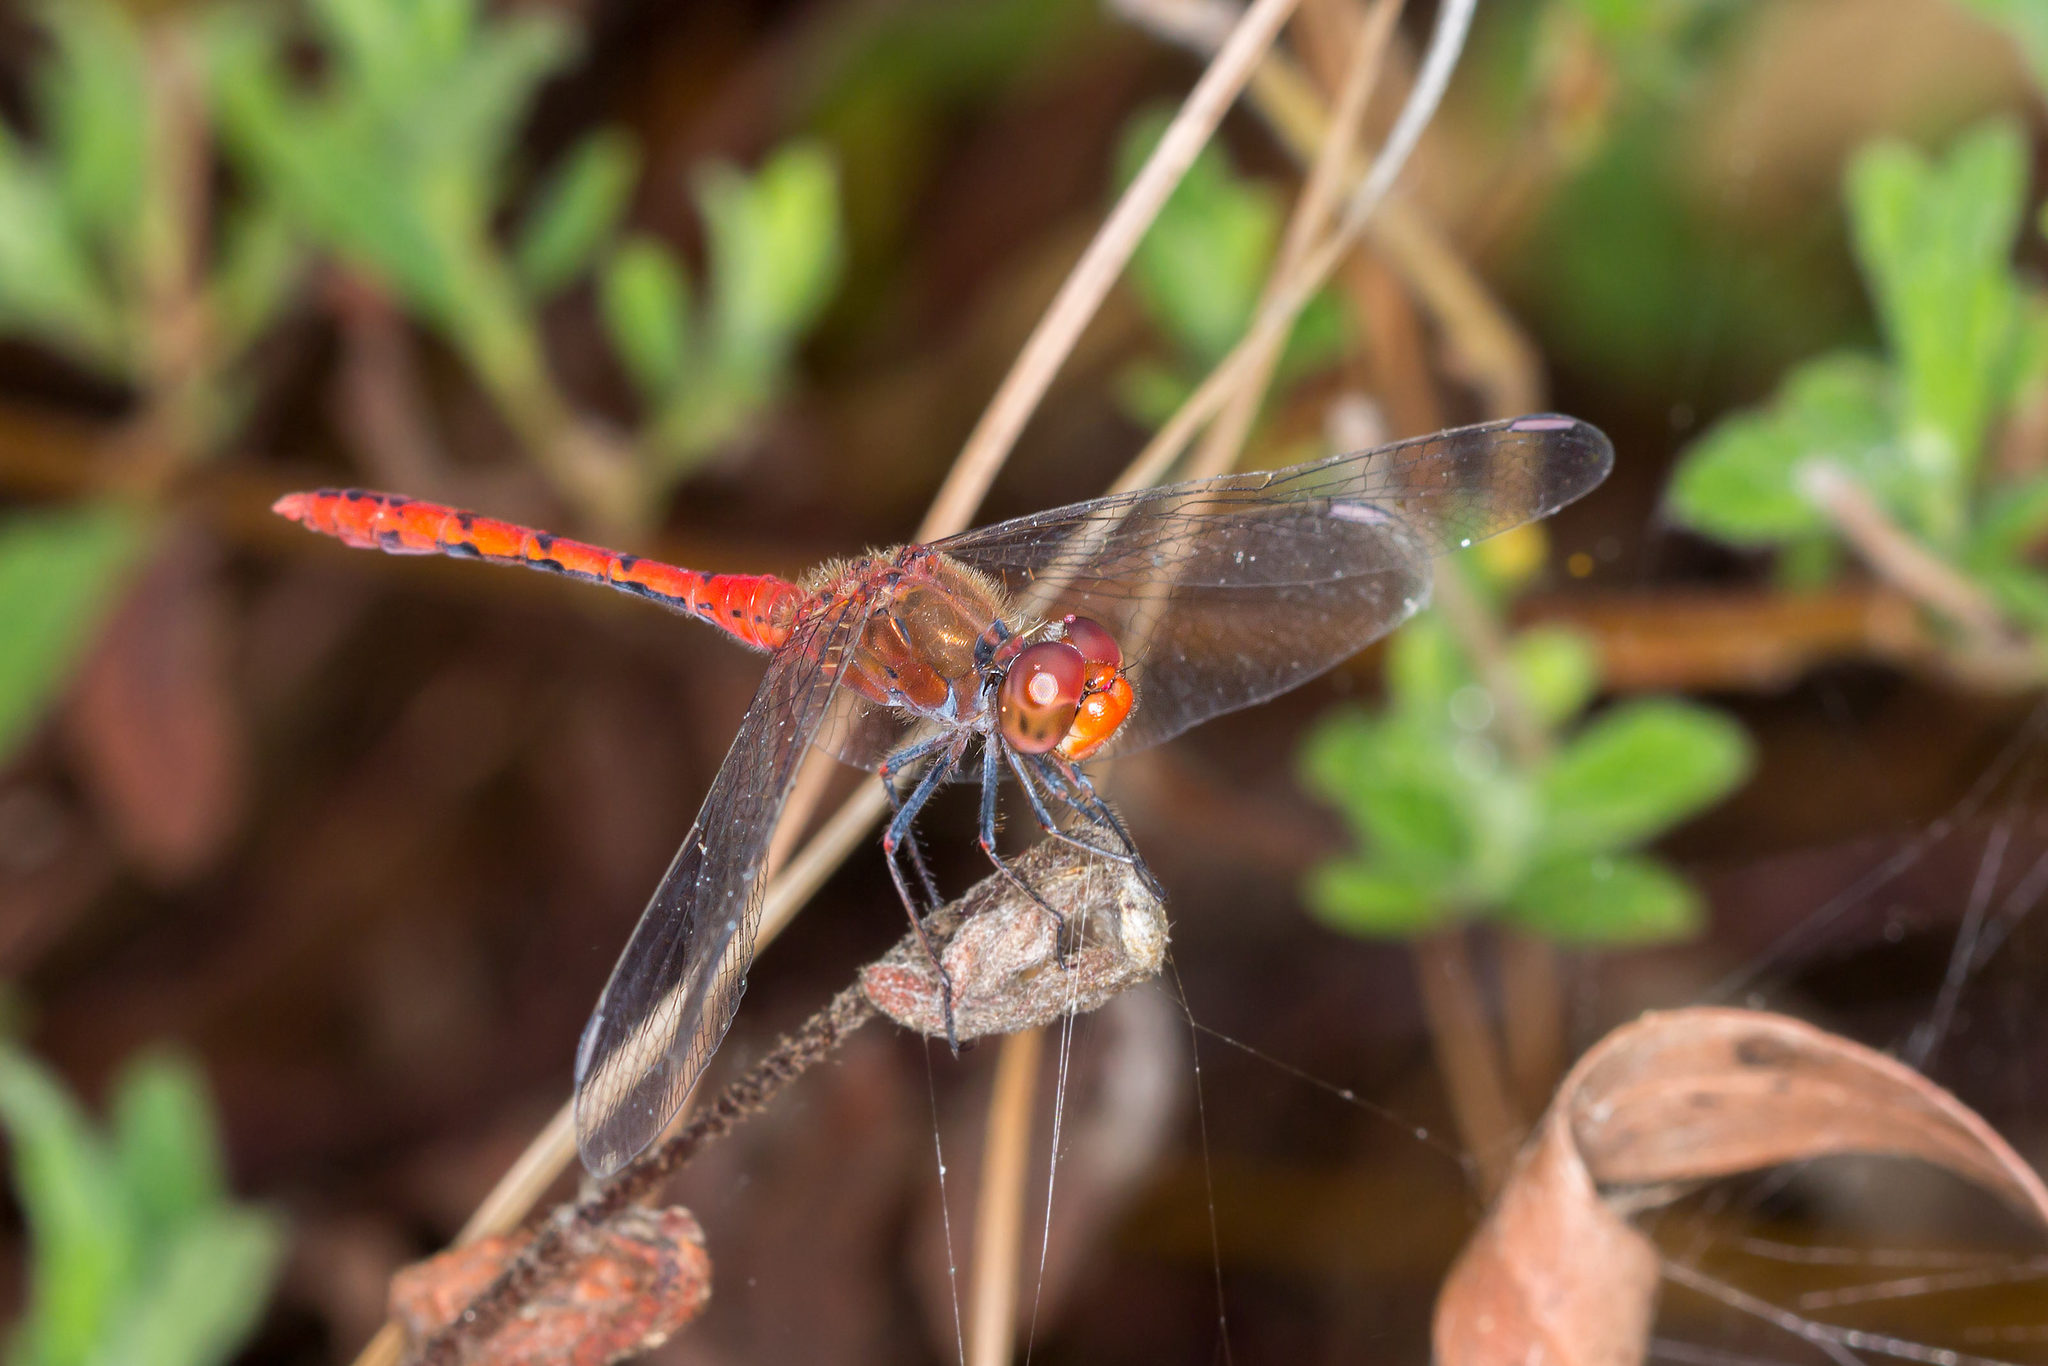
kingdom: Animalia
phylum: Arthropoda
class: Insecta
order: Odonata
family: Libellulidae
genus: Diplacodes
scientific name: Diplacodes bipunctata
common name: Red percher dragonfly
